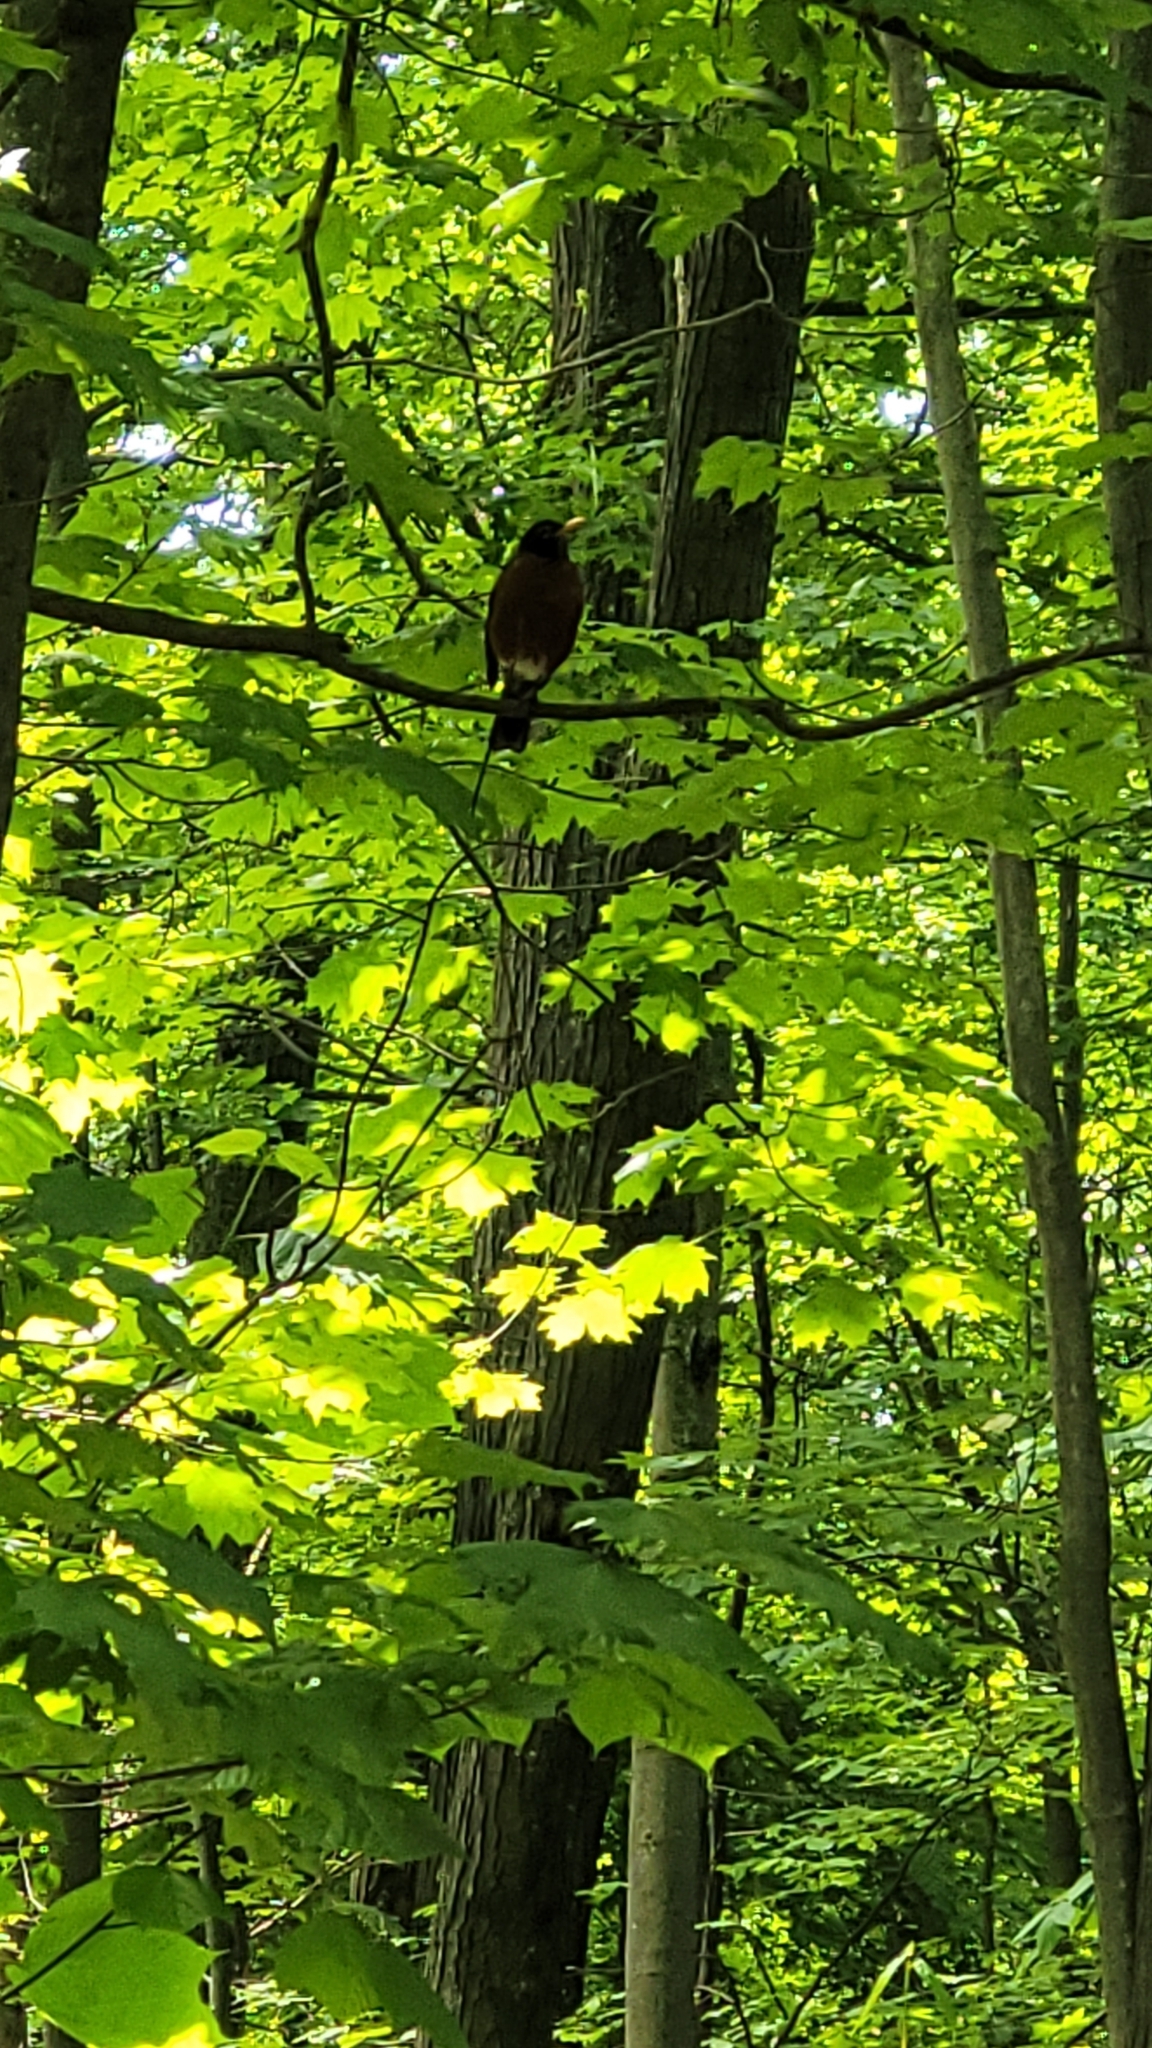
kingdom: Animalia
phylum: Chordata
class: Aves
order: Passeriformes
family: Turdidae
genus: Turdus
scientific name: Turdus migratorius
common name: American robin
